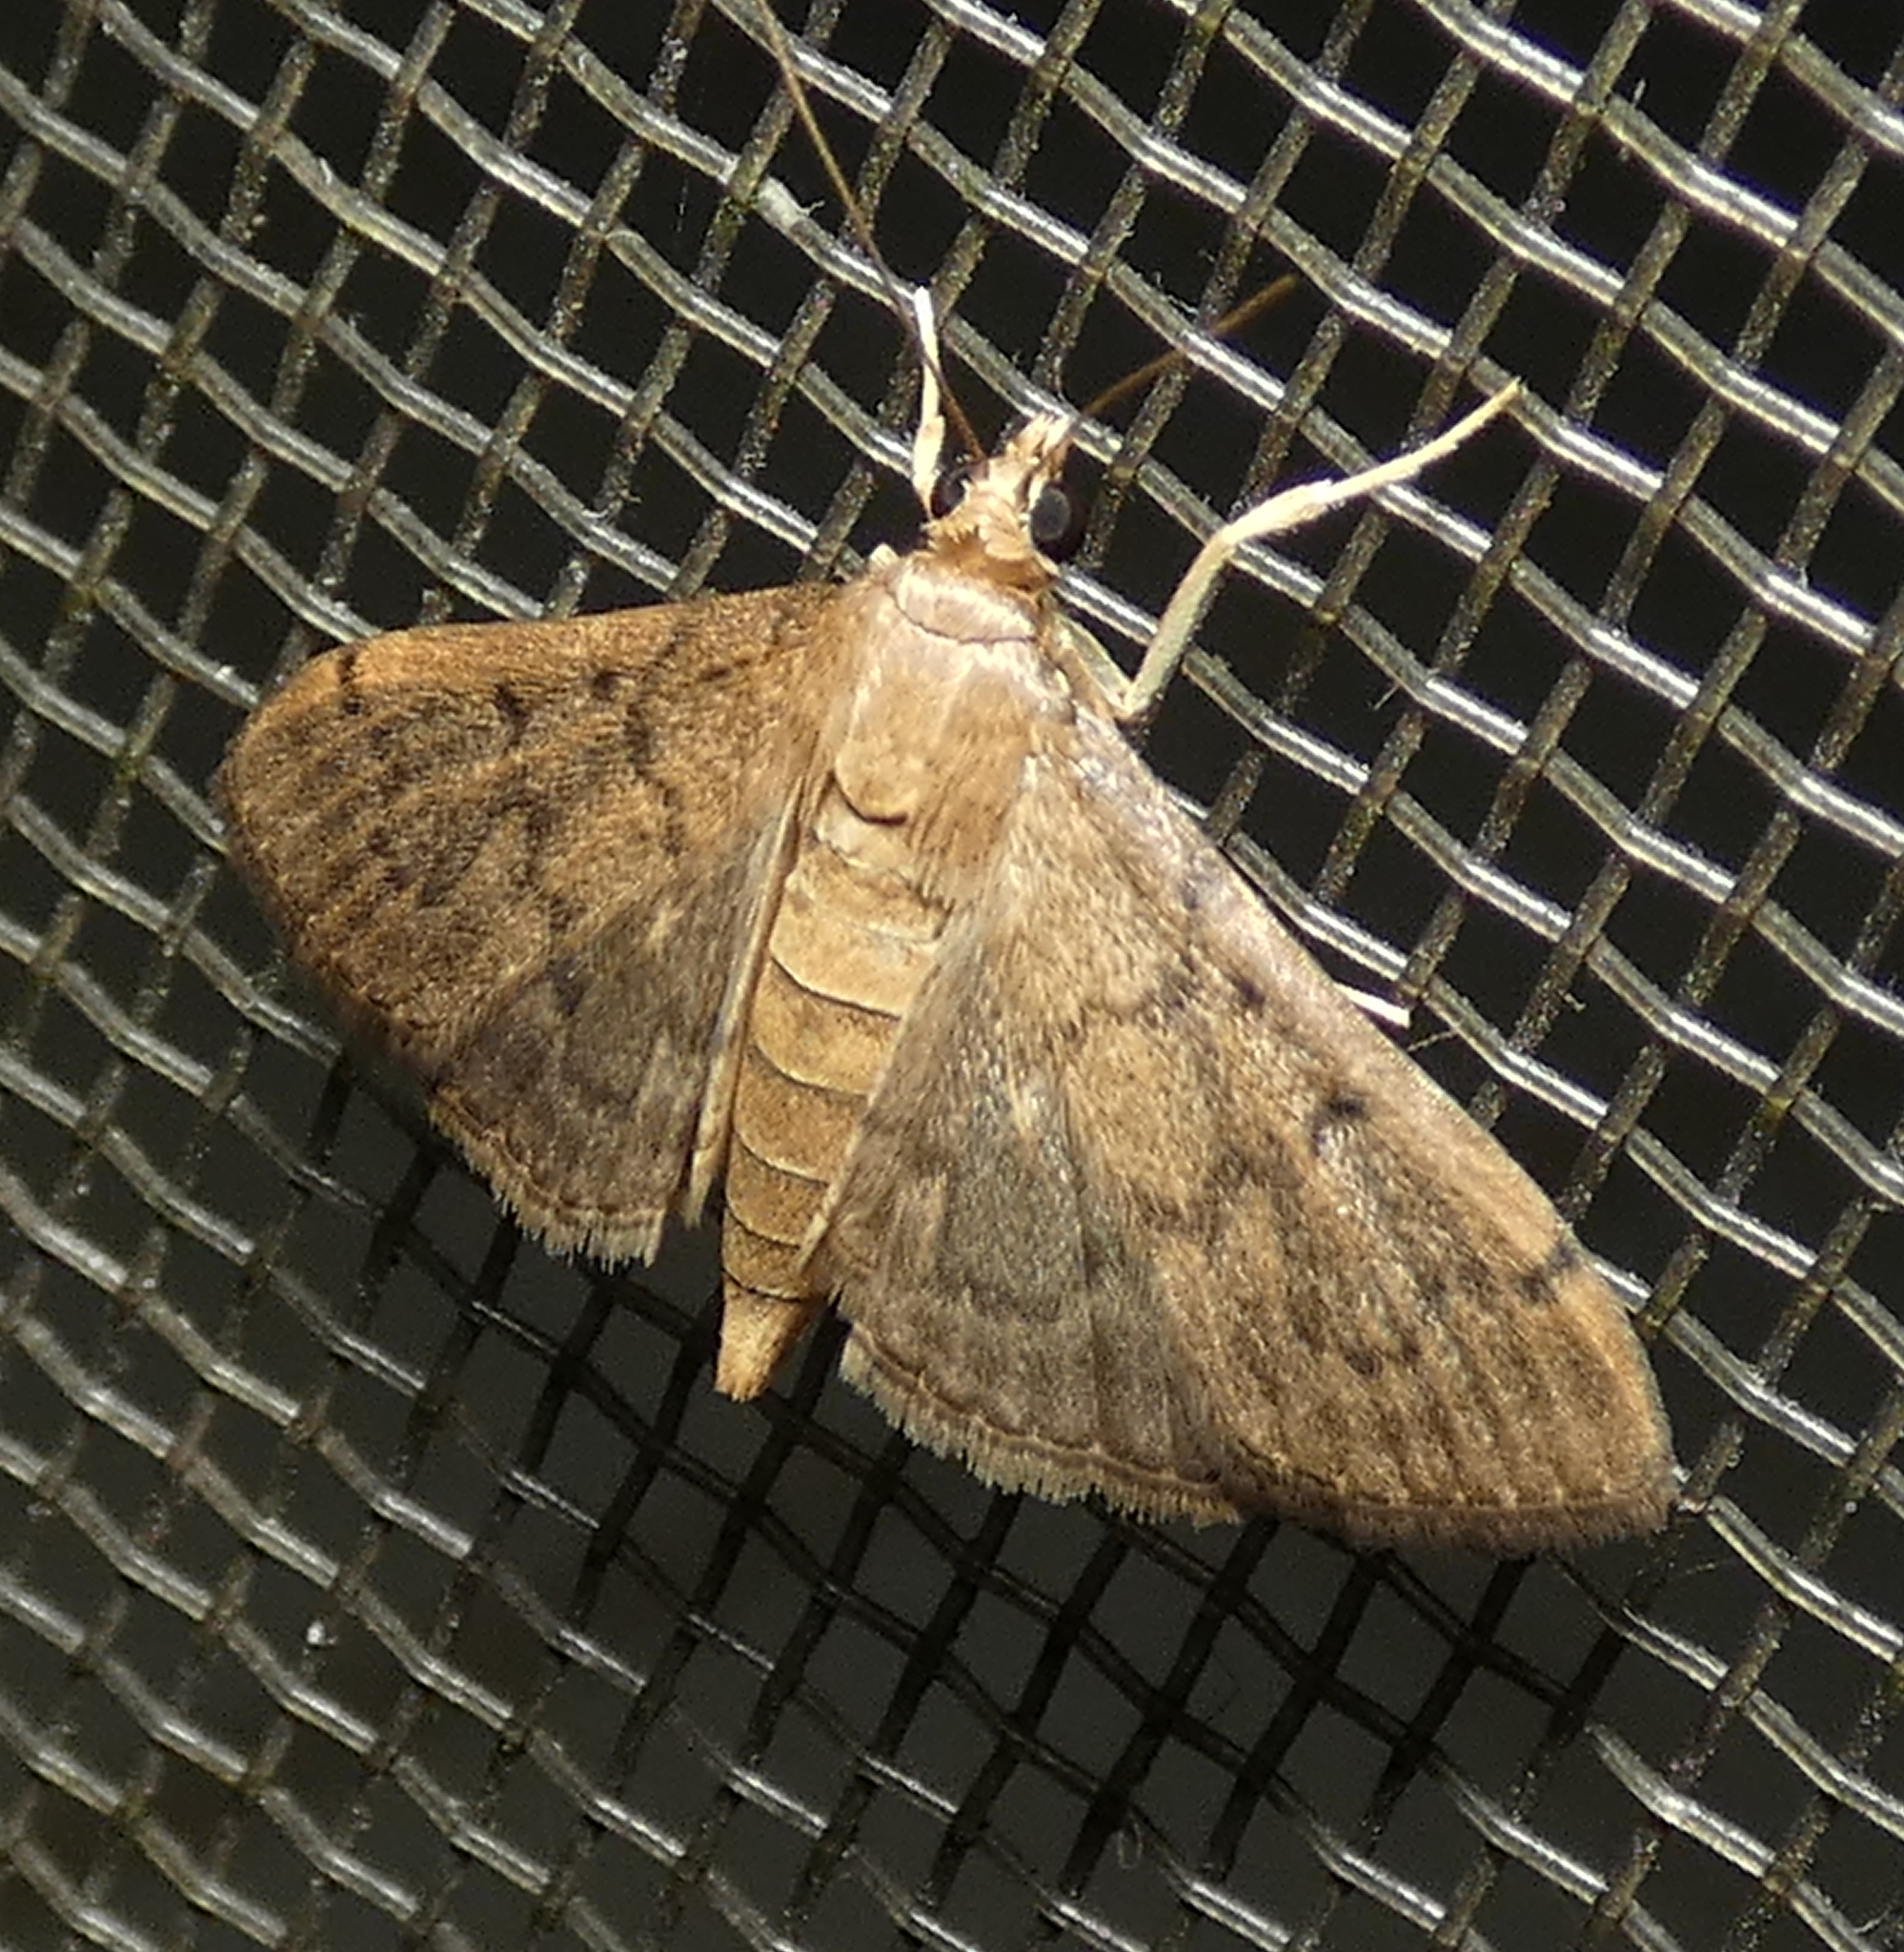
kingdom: Animalia
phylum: Arthropoda
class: Insecta
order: Lepidoptera
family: Crambidae
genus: Herpetogramma
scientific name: Herpetogramma phaeopteralis
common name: Dusky herpetogramma moth
